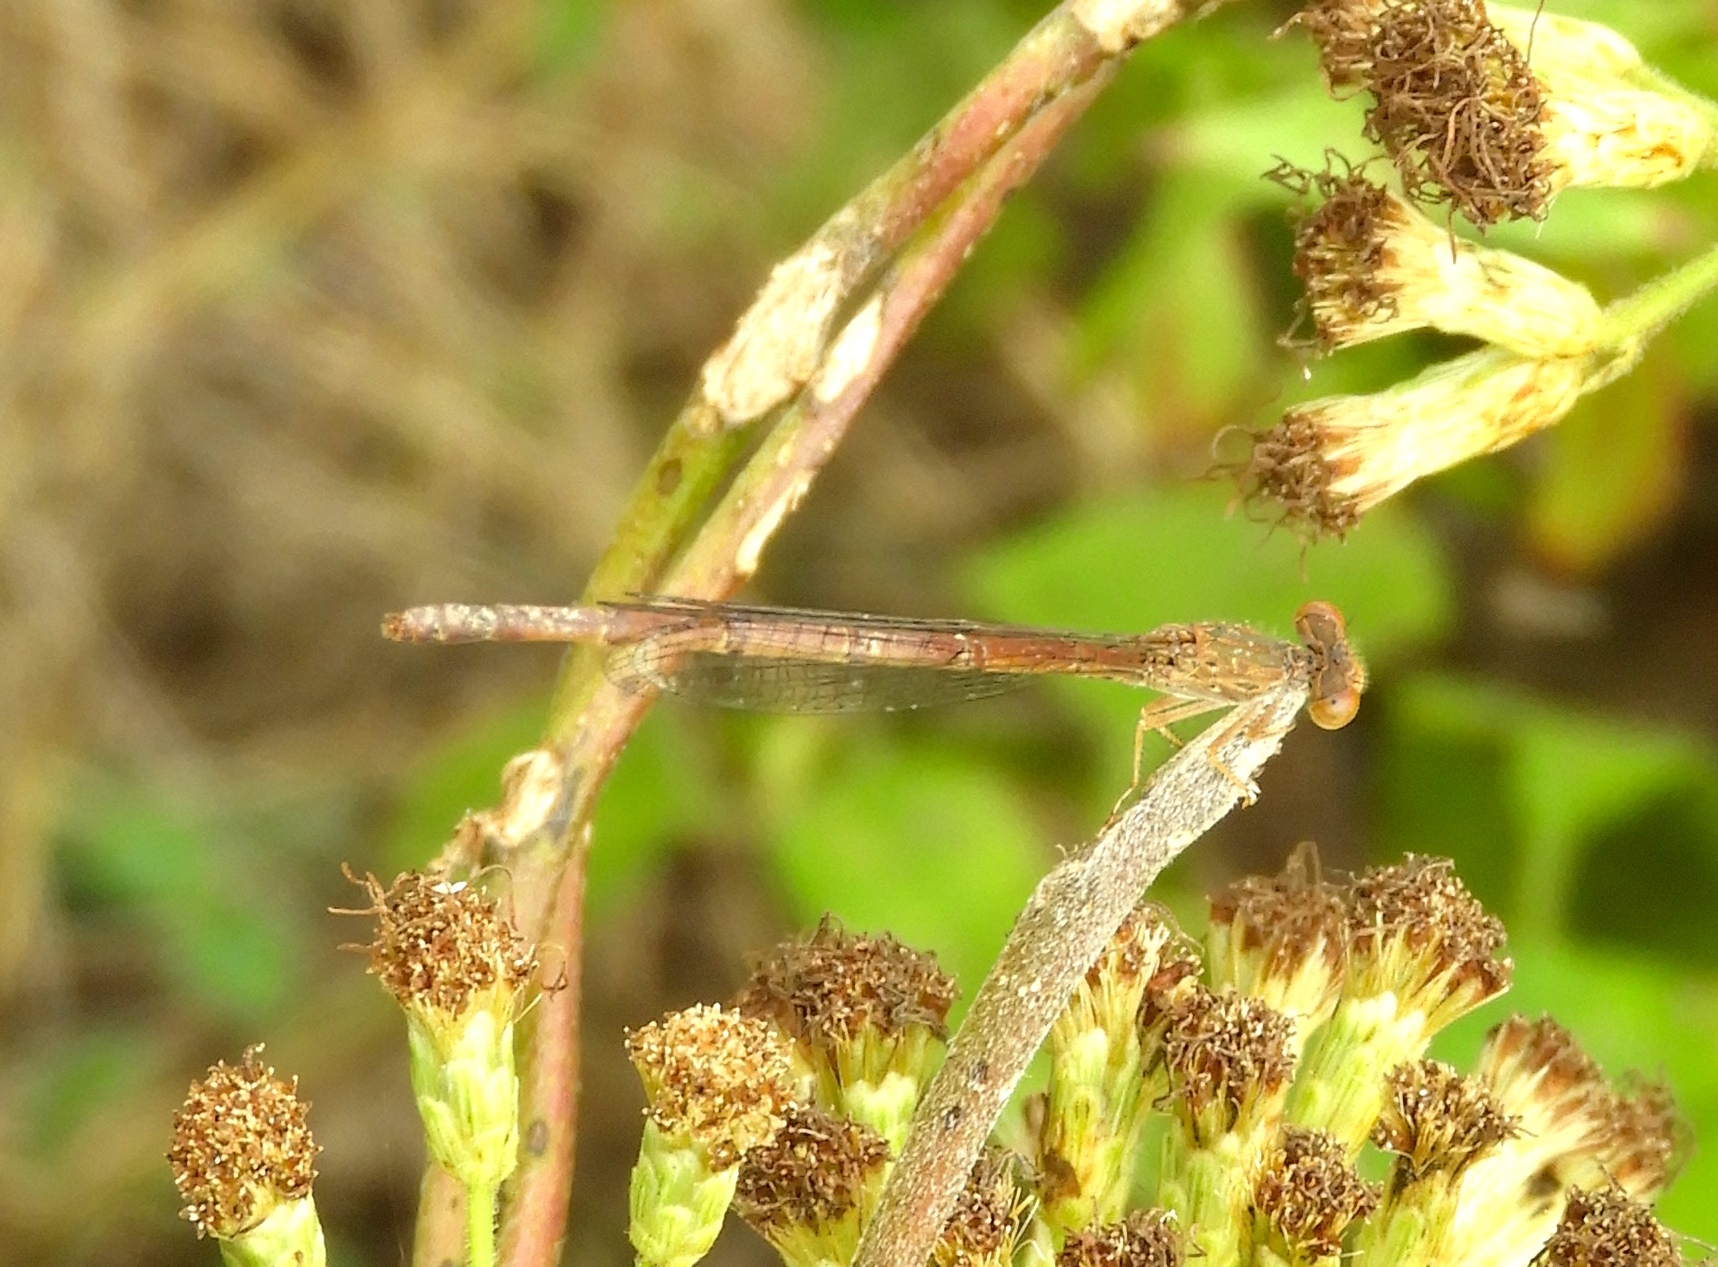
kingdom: Animalia
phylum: Arthropoda
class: Insecta
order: Odonata
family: Coenagrionidae
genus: Telebasis
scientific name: Telebasis salva
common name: Desert firetail
